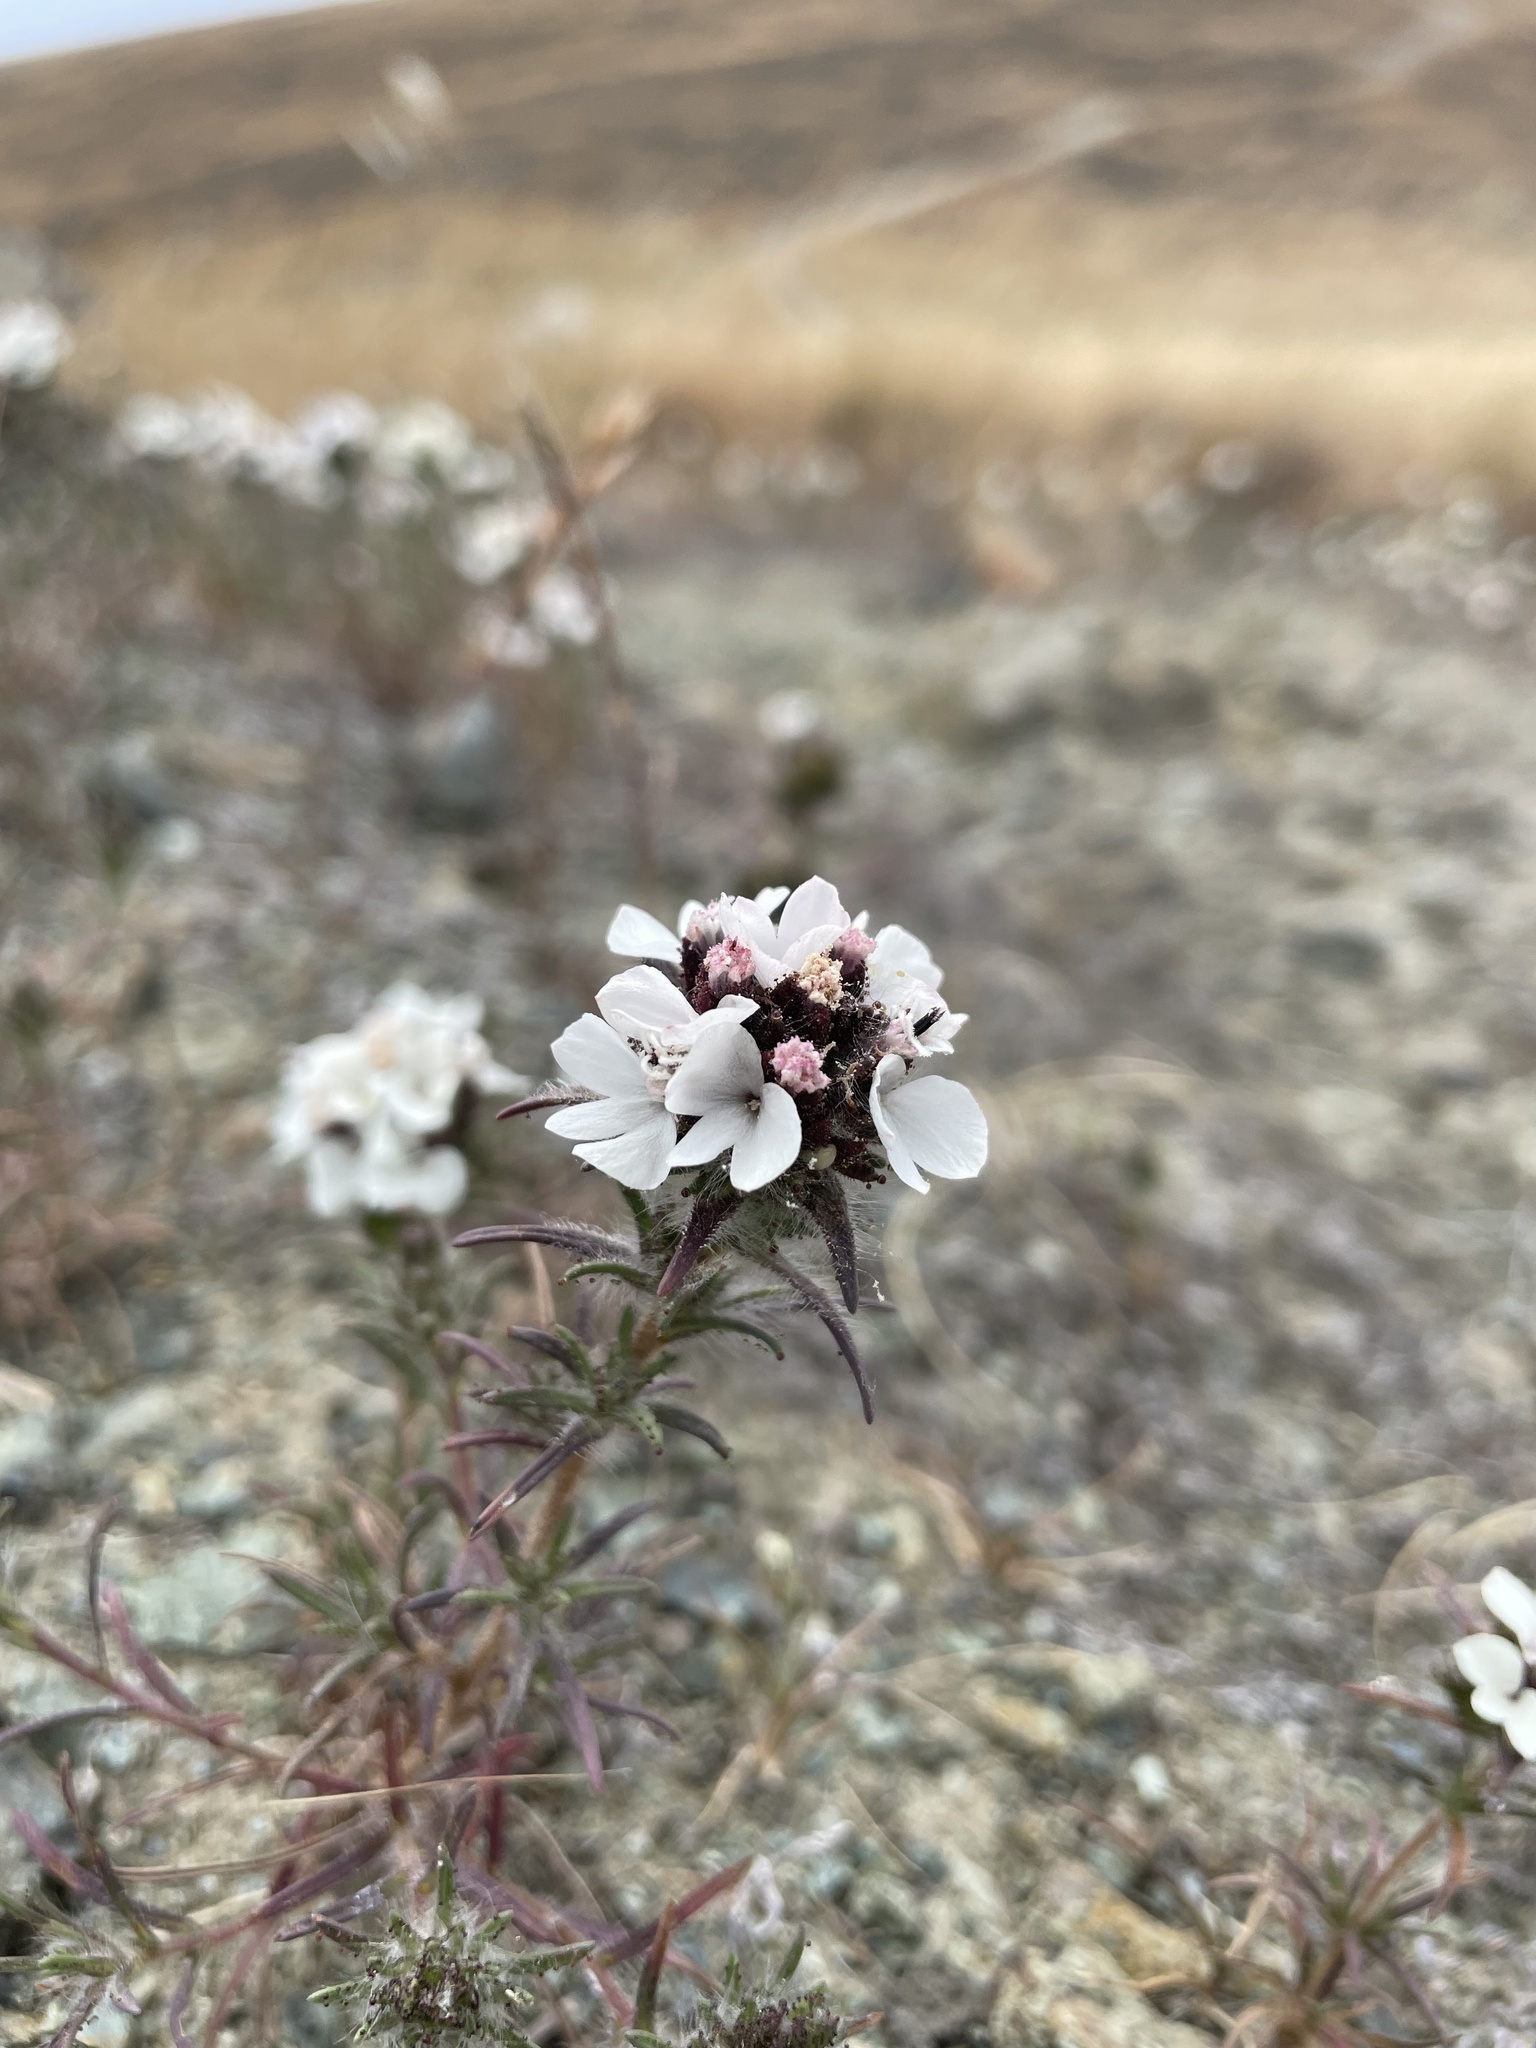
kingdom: Plantae
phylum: Tracheophyta
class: Magnoliopsida
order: Asterales
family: Asteraceae
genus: Calycadenia
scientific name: Calycadenia multiglandulosa
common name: Sticky calycadenia
